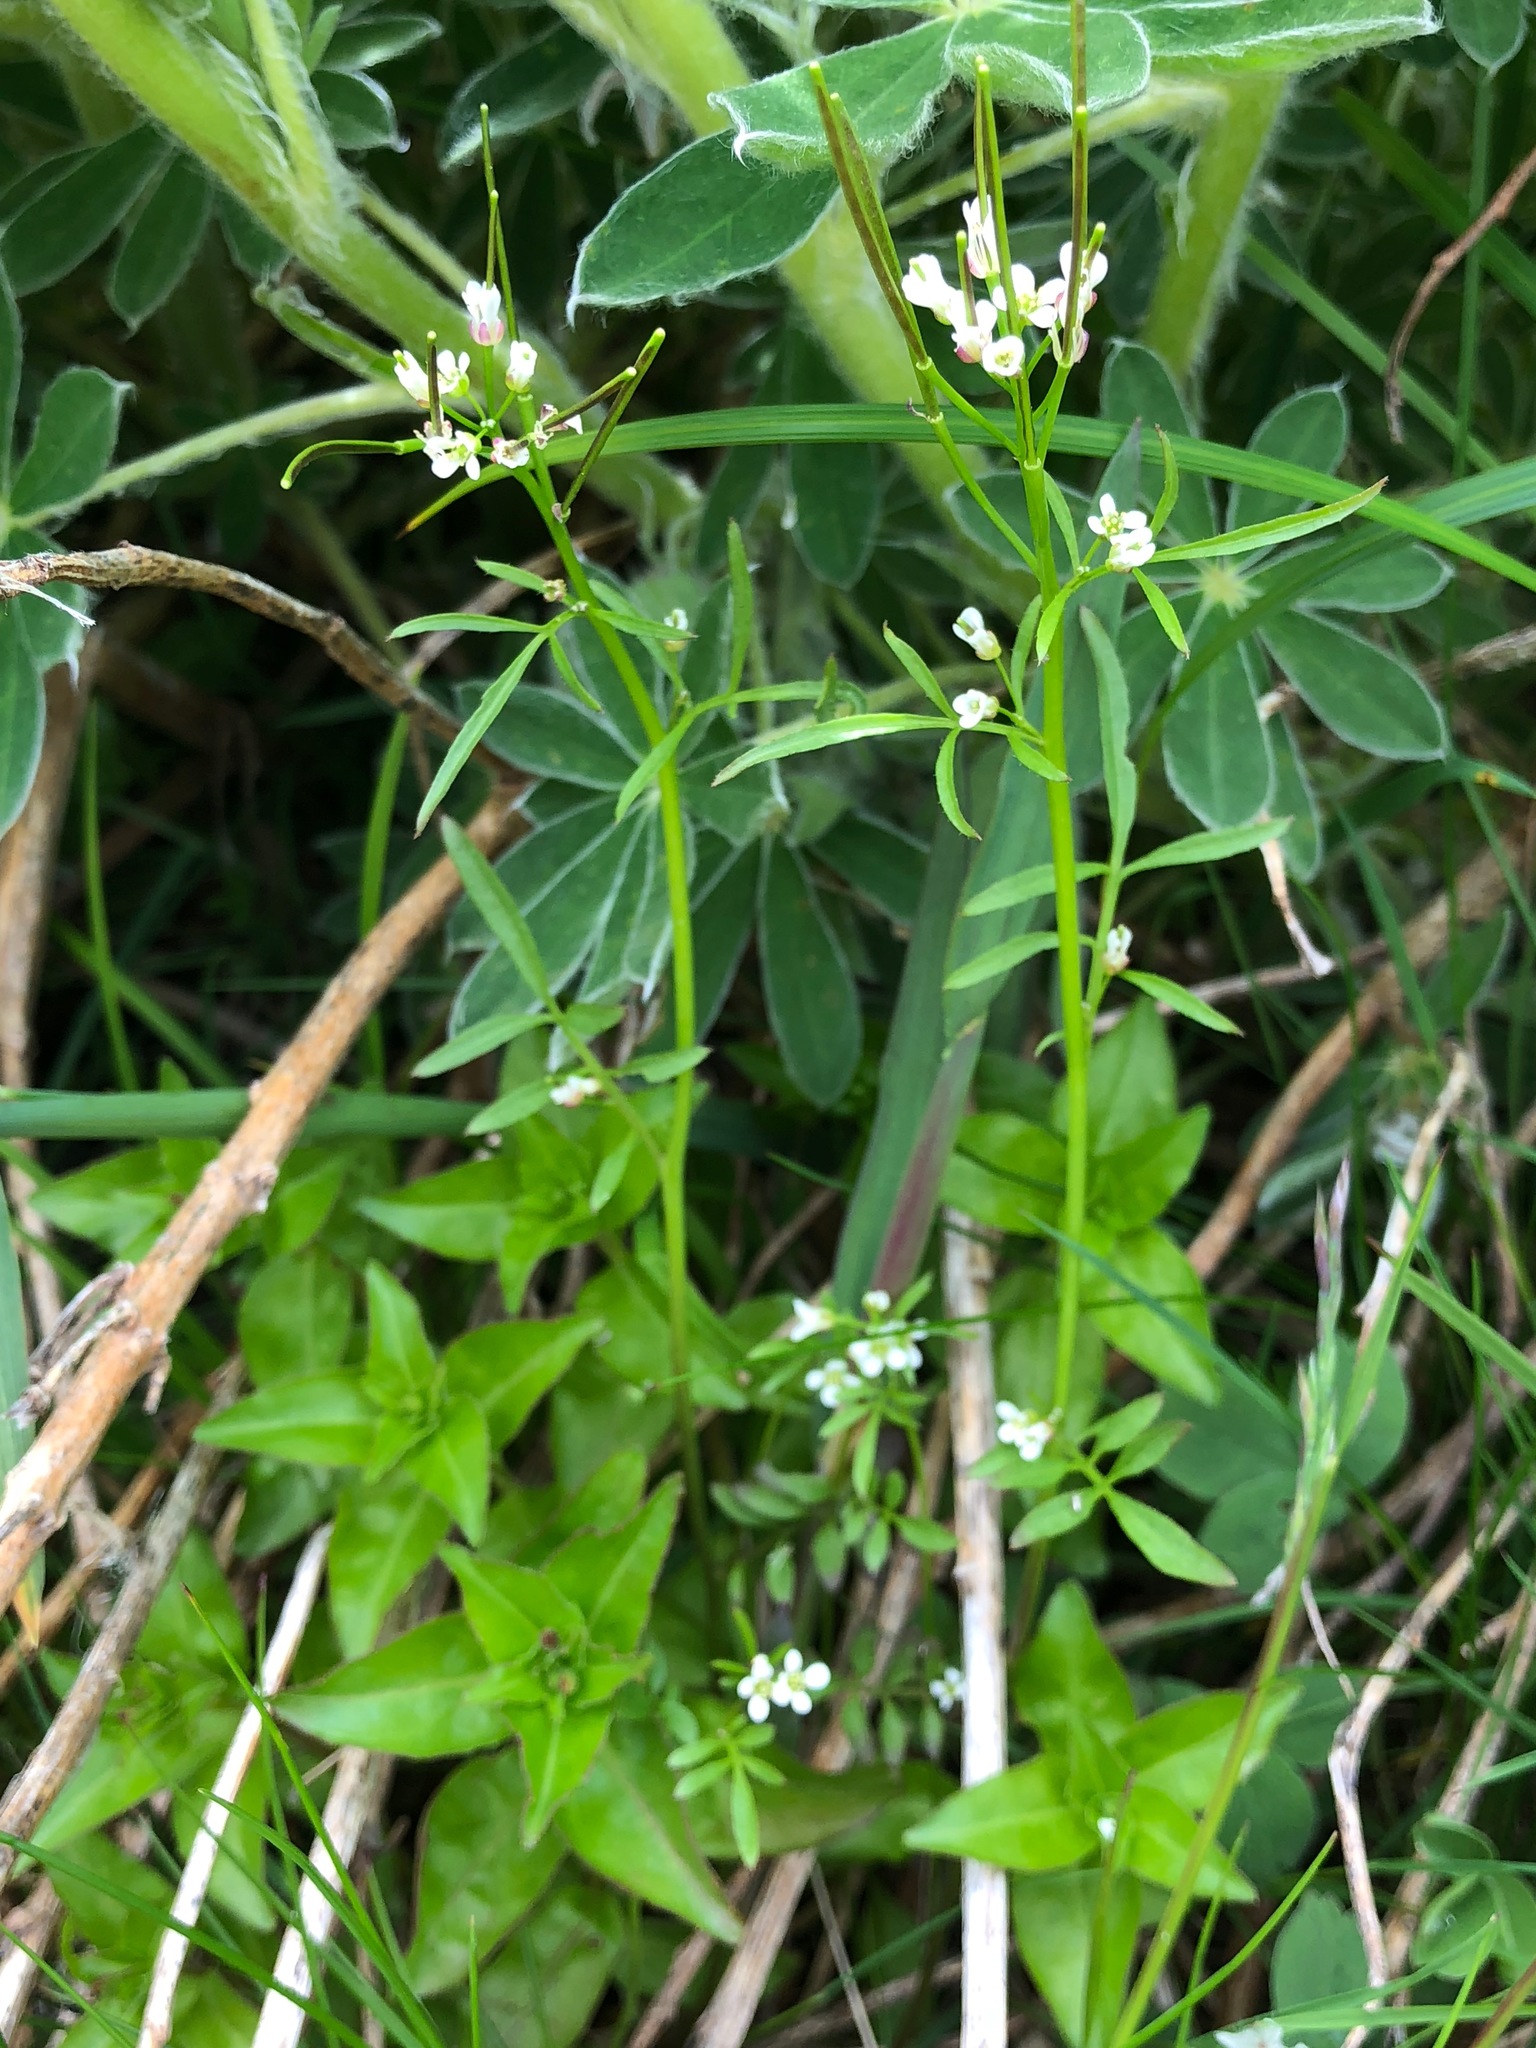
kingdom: Plantae
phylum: Tracheophyta
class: Magnoliopsida
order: Brassicales
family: Brassicaceae
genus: Cardamine
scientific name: Cardamine umbellata
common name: Siberian bittercress
